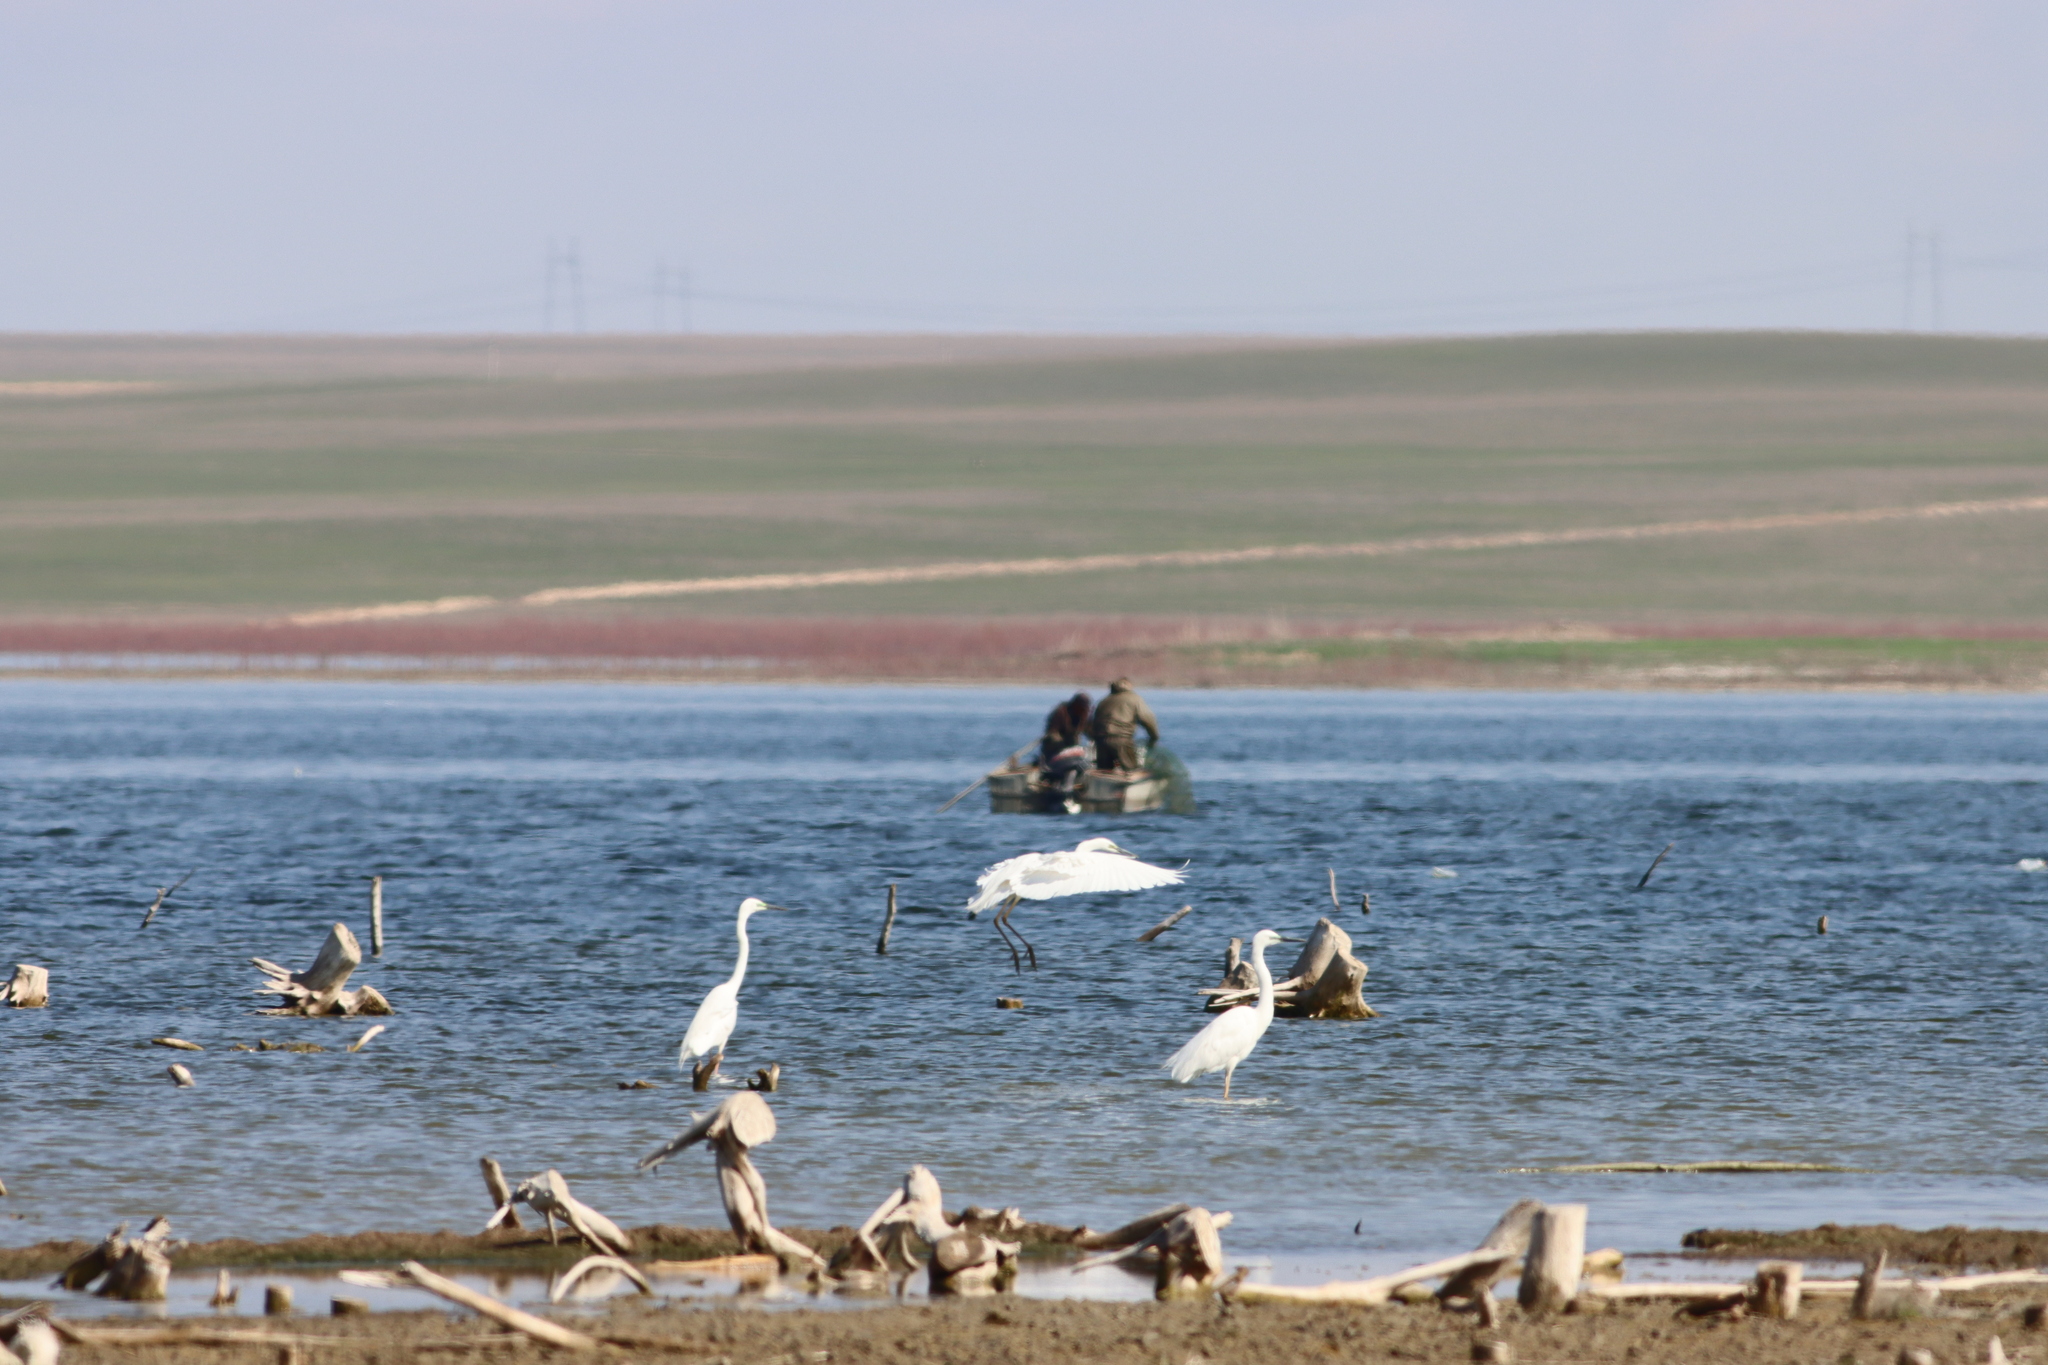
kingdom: Animalia
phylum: Chordata
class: Aves
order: Pelecaniformes
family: Ardeidae
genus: Ardea
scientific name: Ardea alba
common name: Great egret
